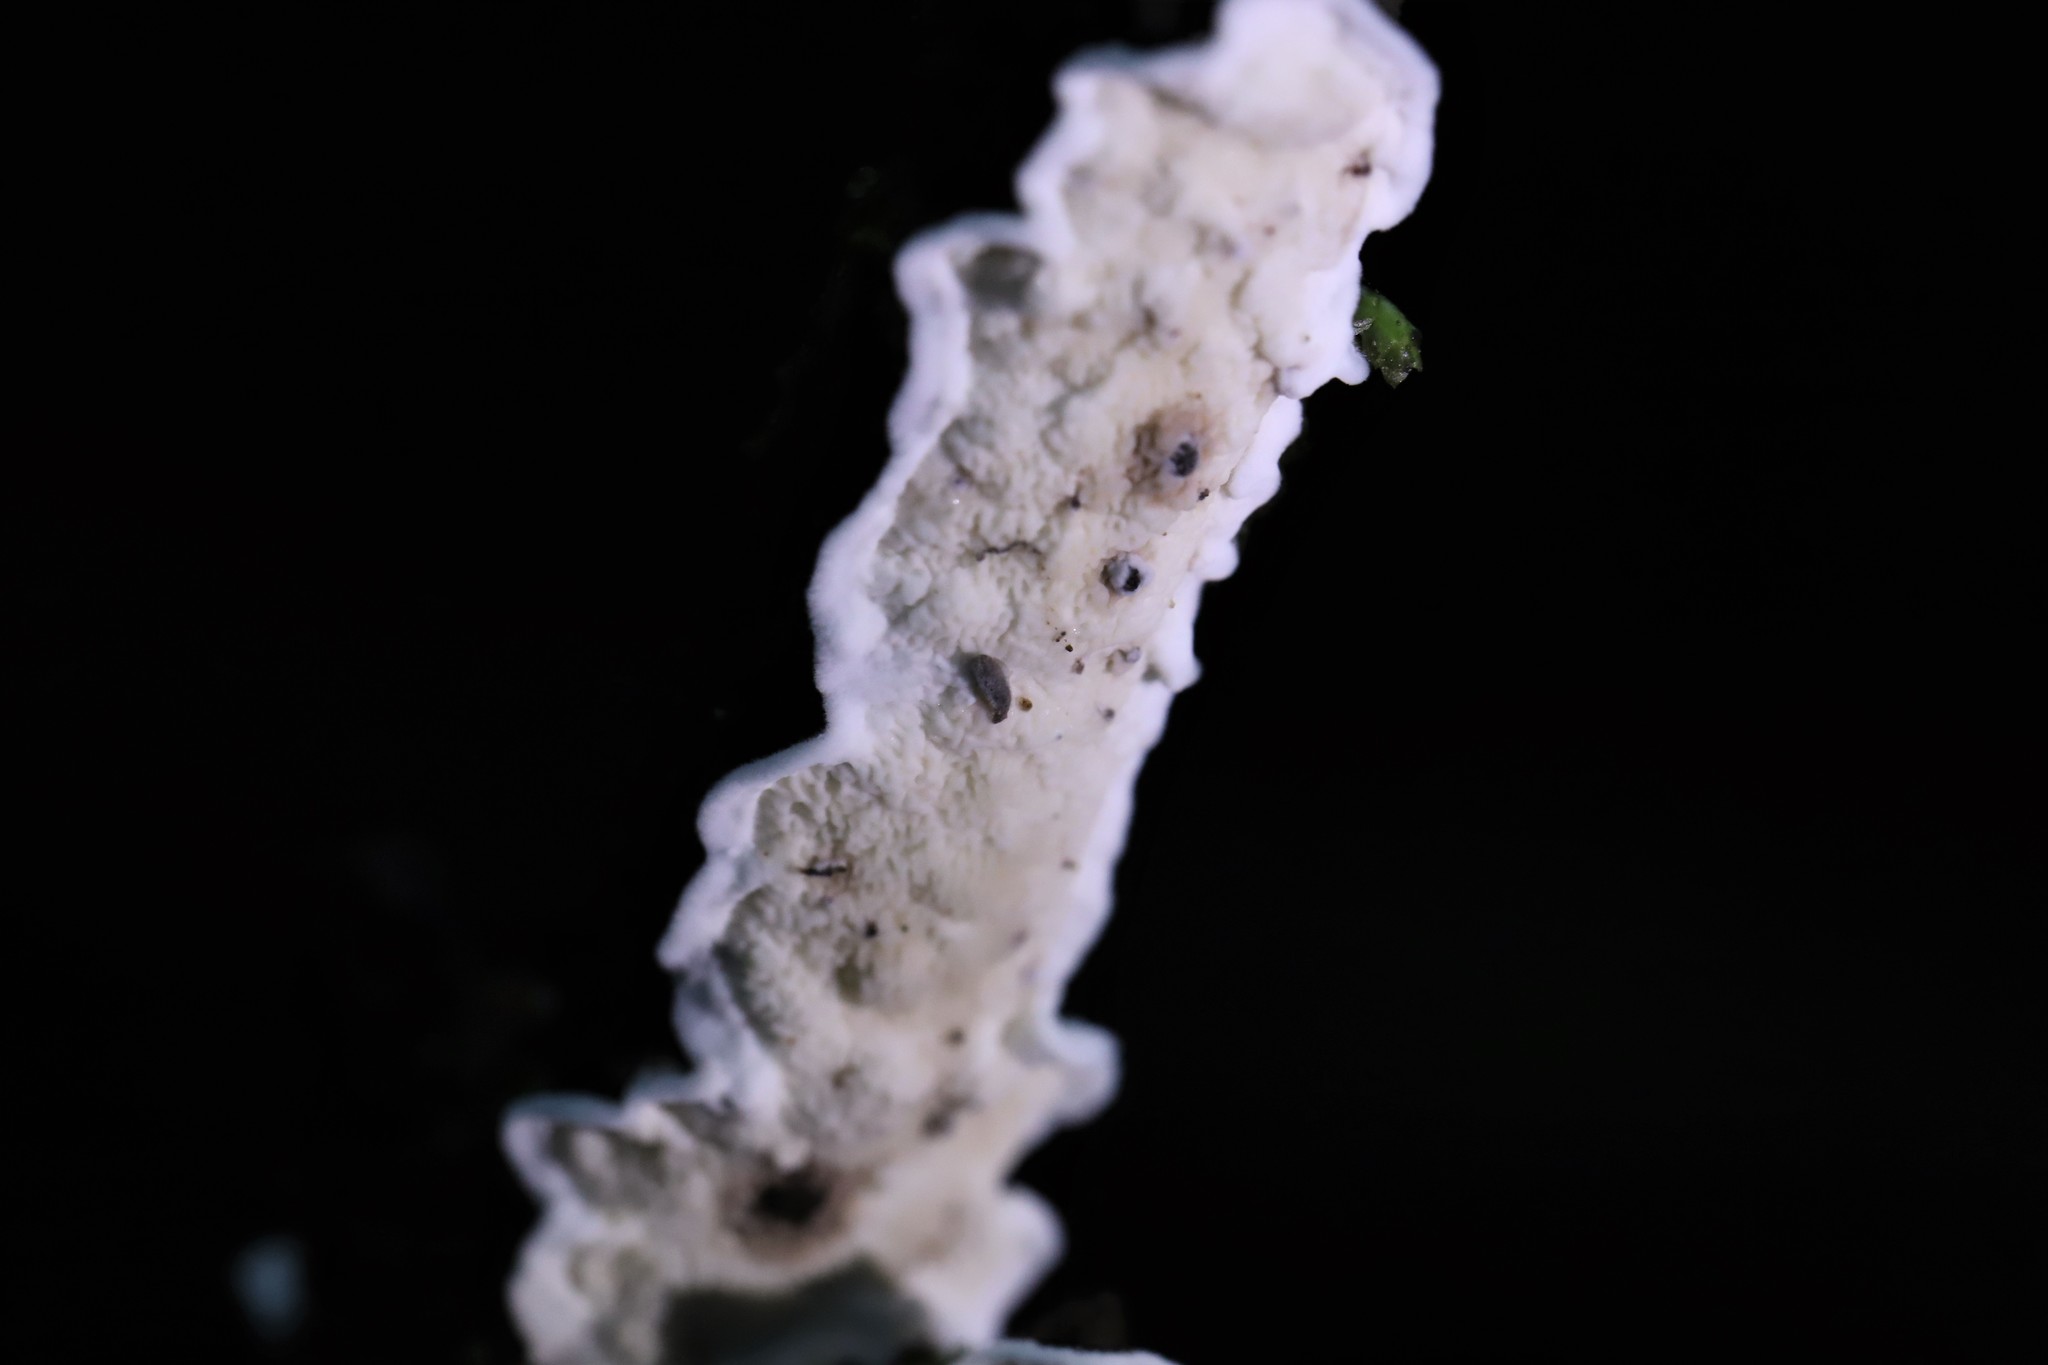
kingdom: Fungi
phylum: Basidiomycota
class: Agaricomycetes
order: Polyporales
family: Irpicaceae
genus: Byssomerulius
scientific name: Byssomerulius corium
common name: Netted crust
